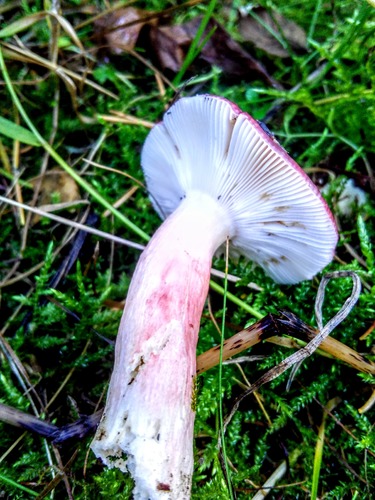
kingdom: Fungi
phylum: Basidiomycota
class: Agaricomycetes
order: Russulales
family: Russulaceae
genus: Russula
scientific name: Russula rhodocephala
